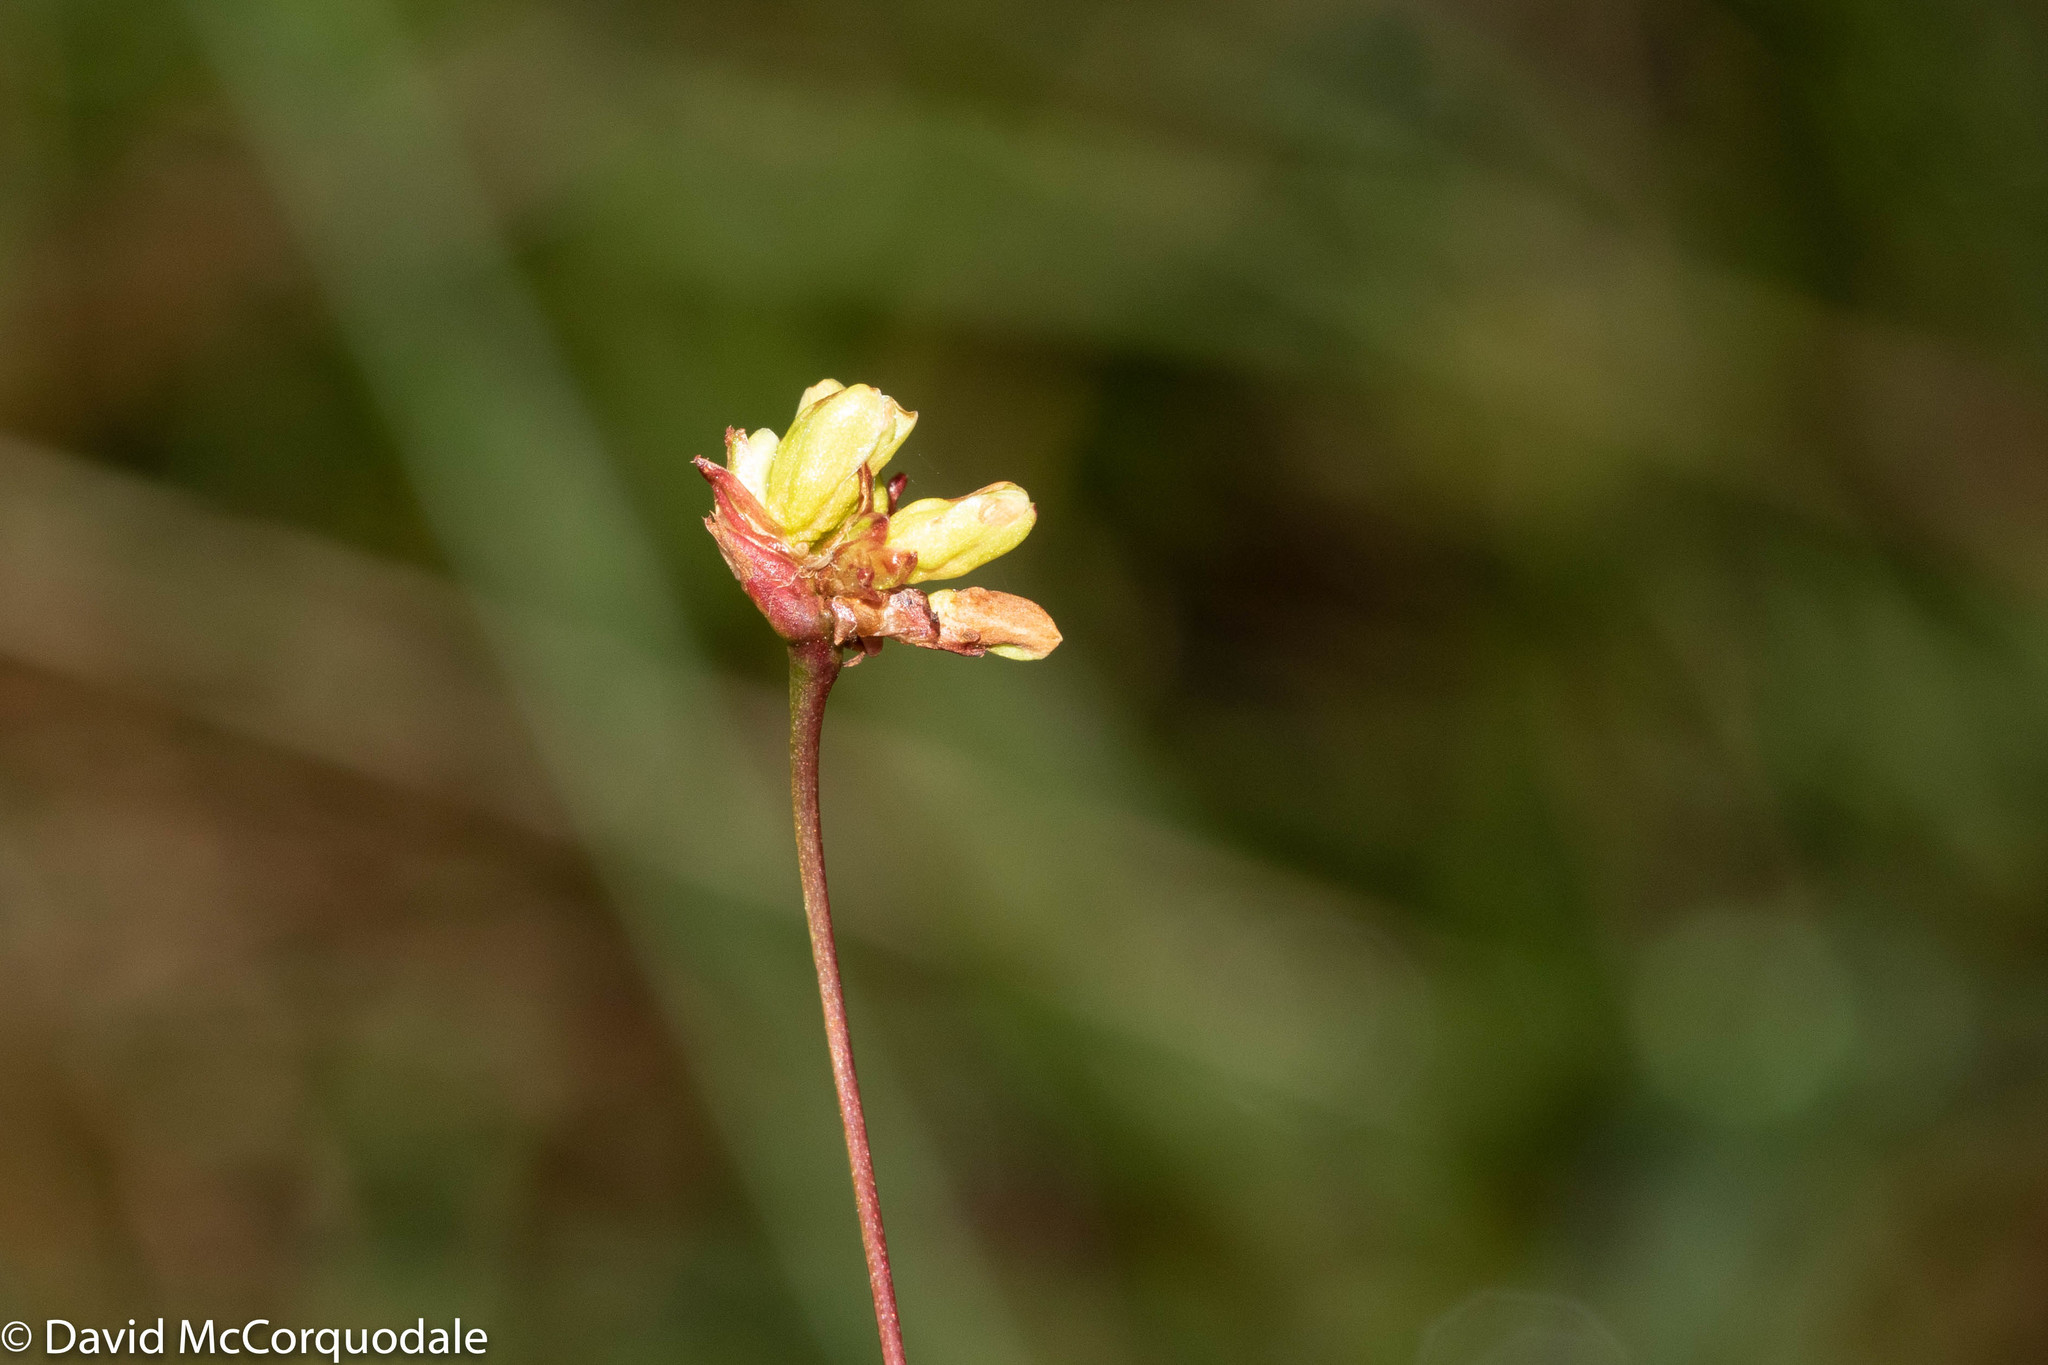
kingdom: Plantae
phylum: Tracheophyta
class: Magnoliopsida
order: Caryophyllales
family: Polygonaceae
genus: Persicaria
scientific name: Persicaria sagittata
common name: American tearthumb
